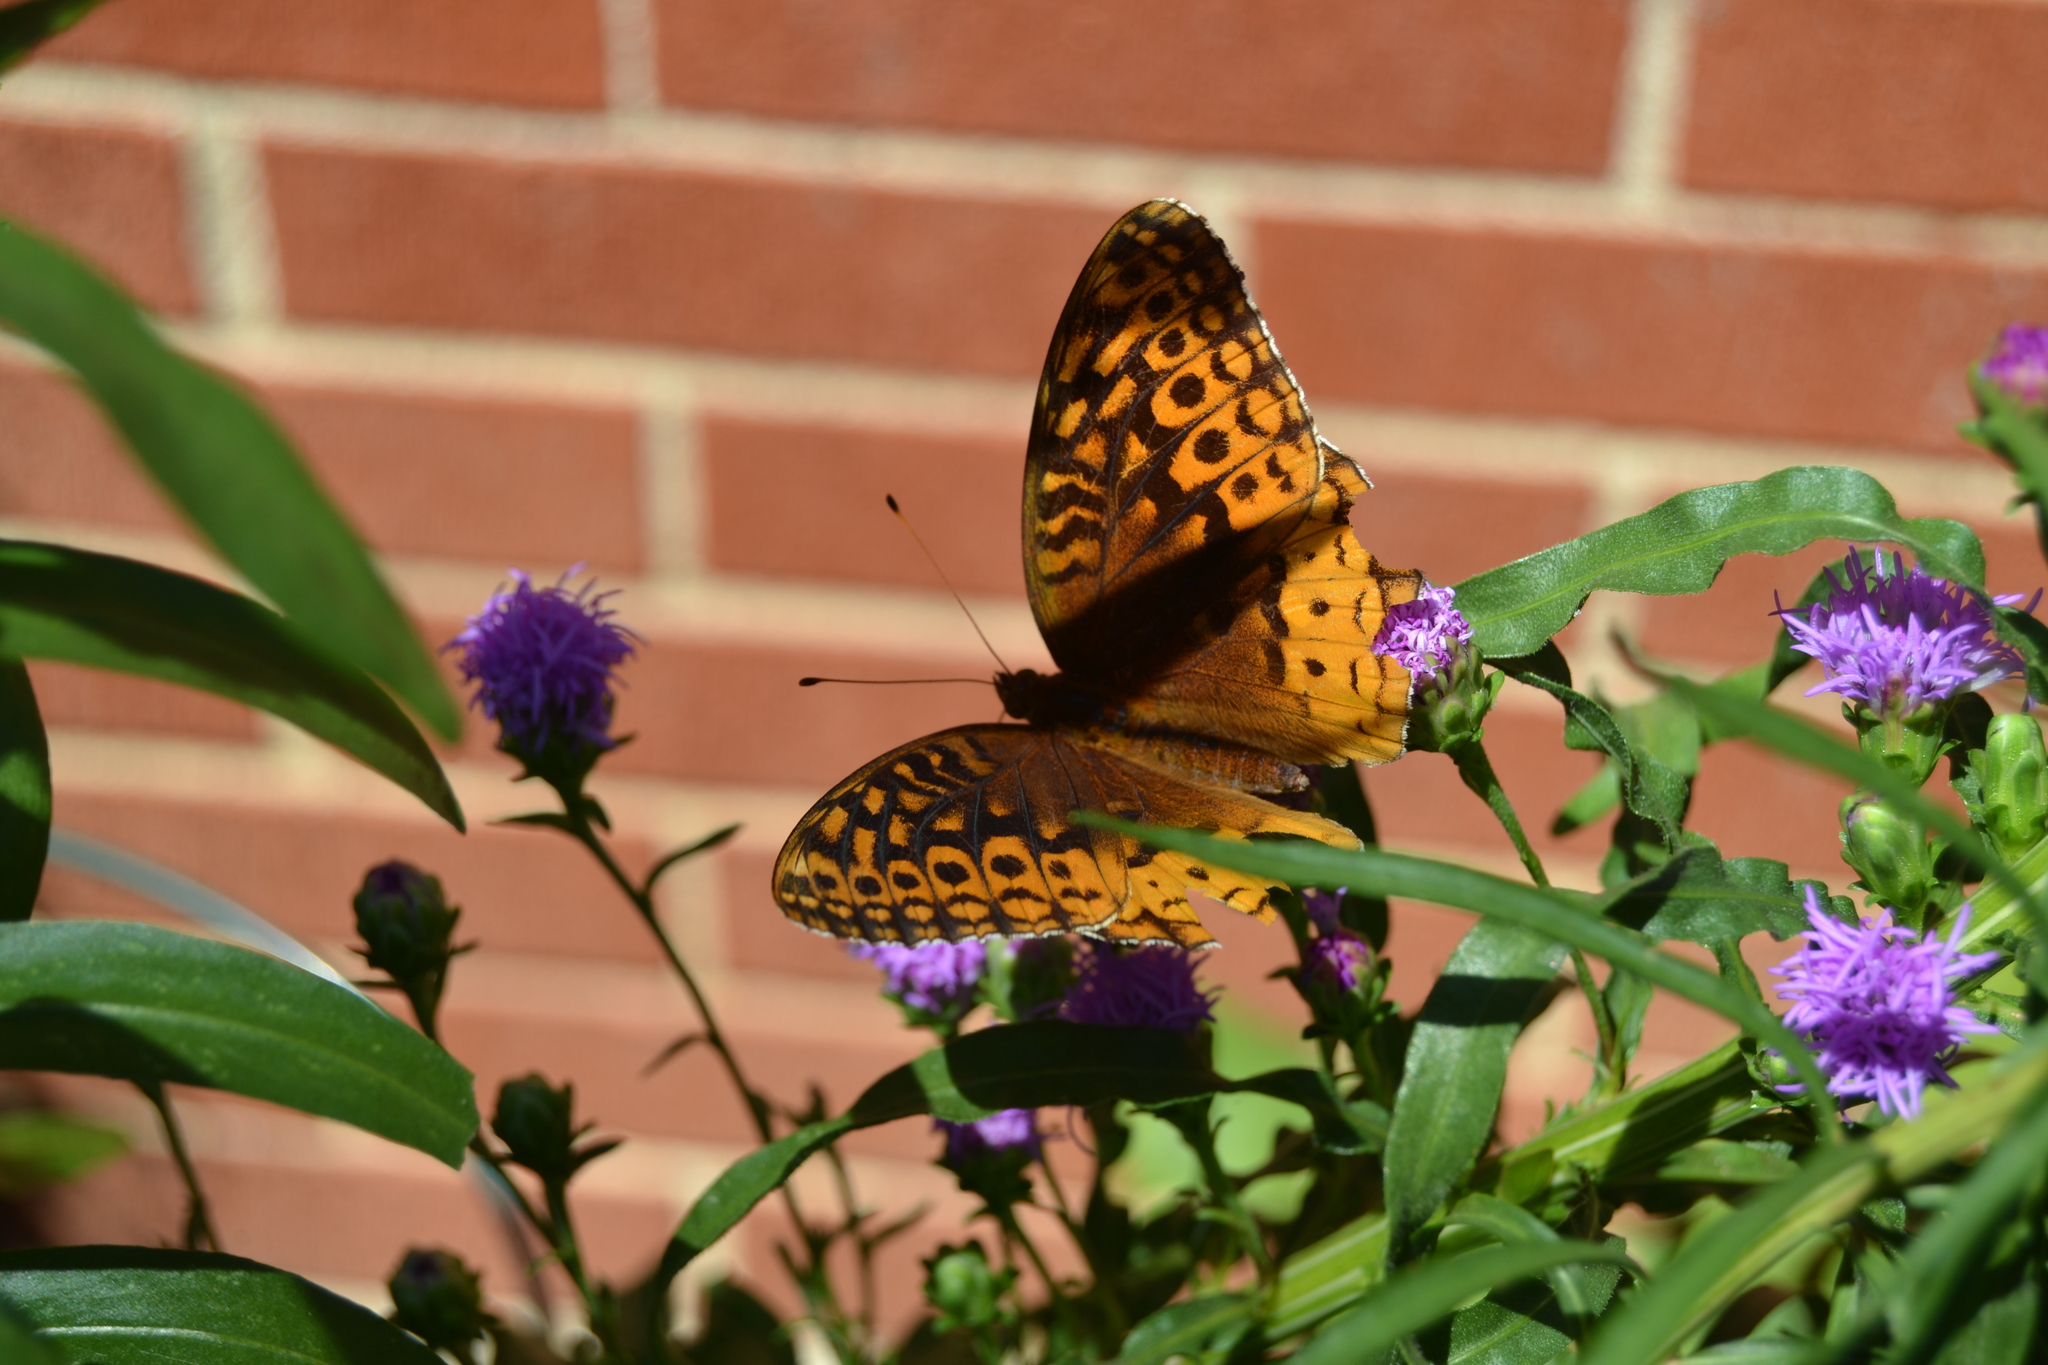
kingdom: Animalia
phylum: Arthropoda
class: Insecta
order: Lepidoptera
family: Nymphalidae
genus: Speyeria
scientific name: Speyeria cybele
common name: Great spangled fritillary
